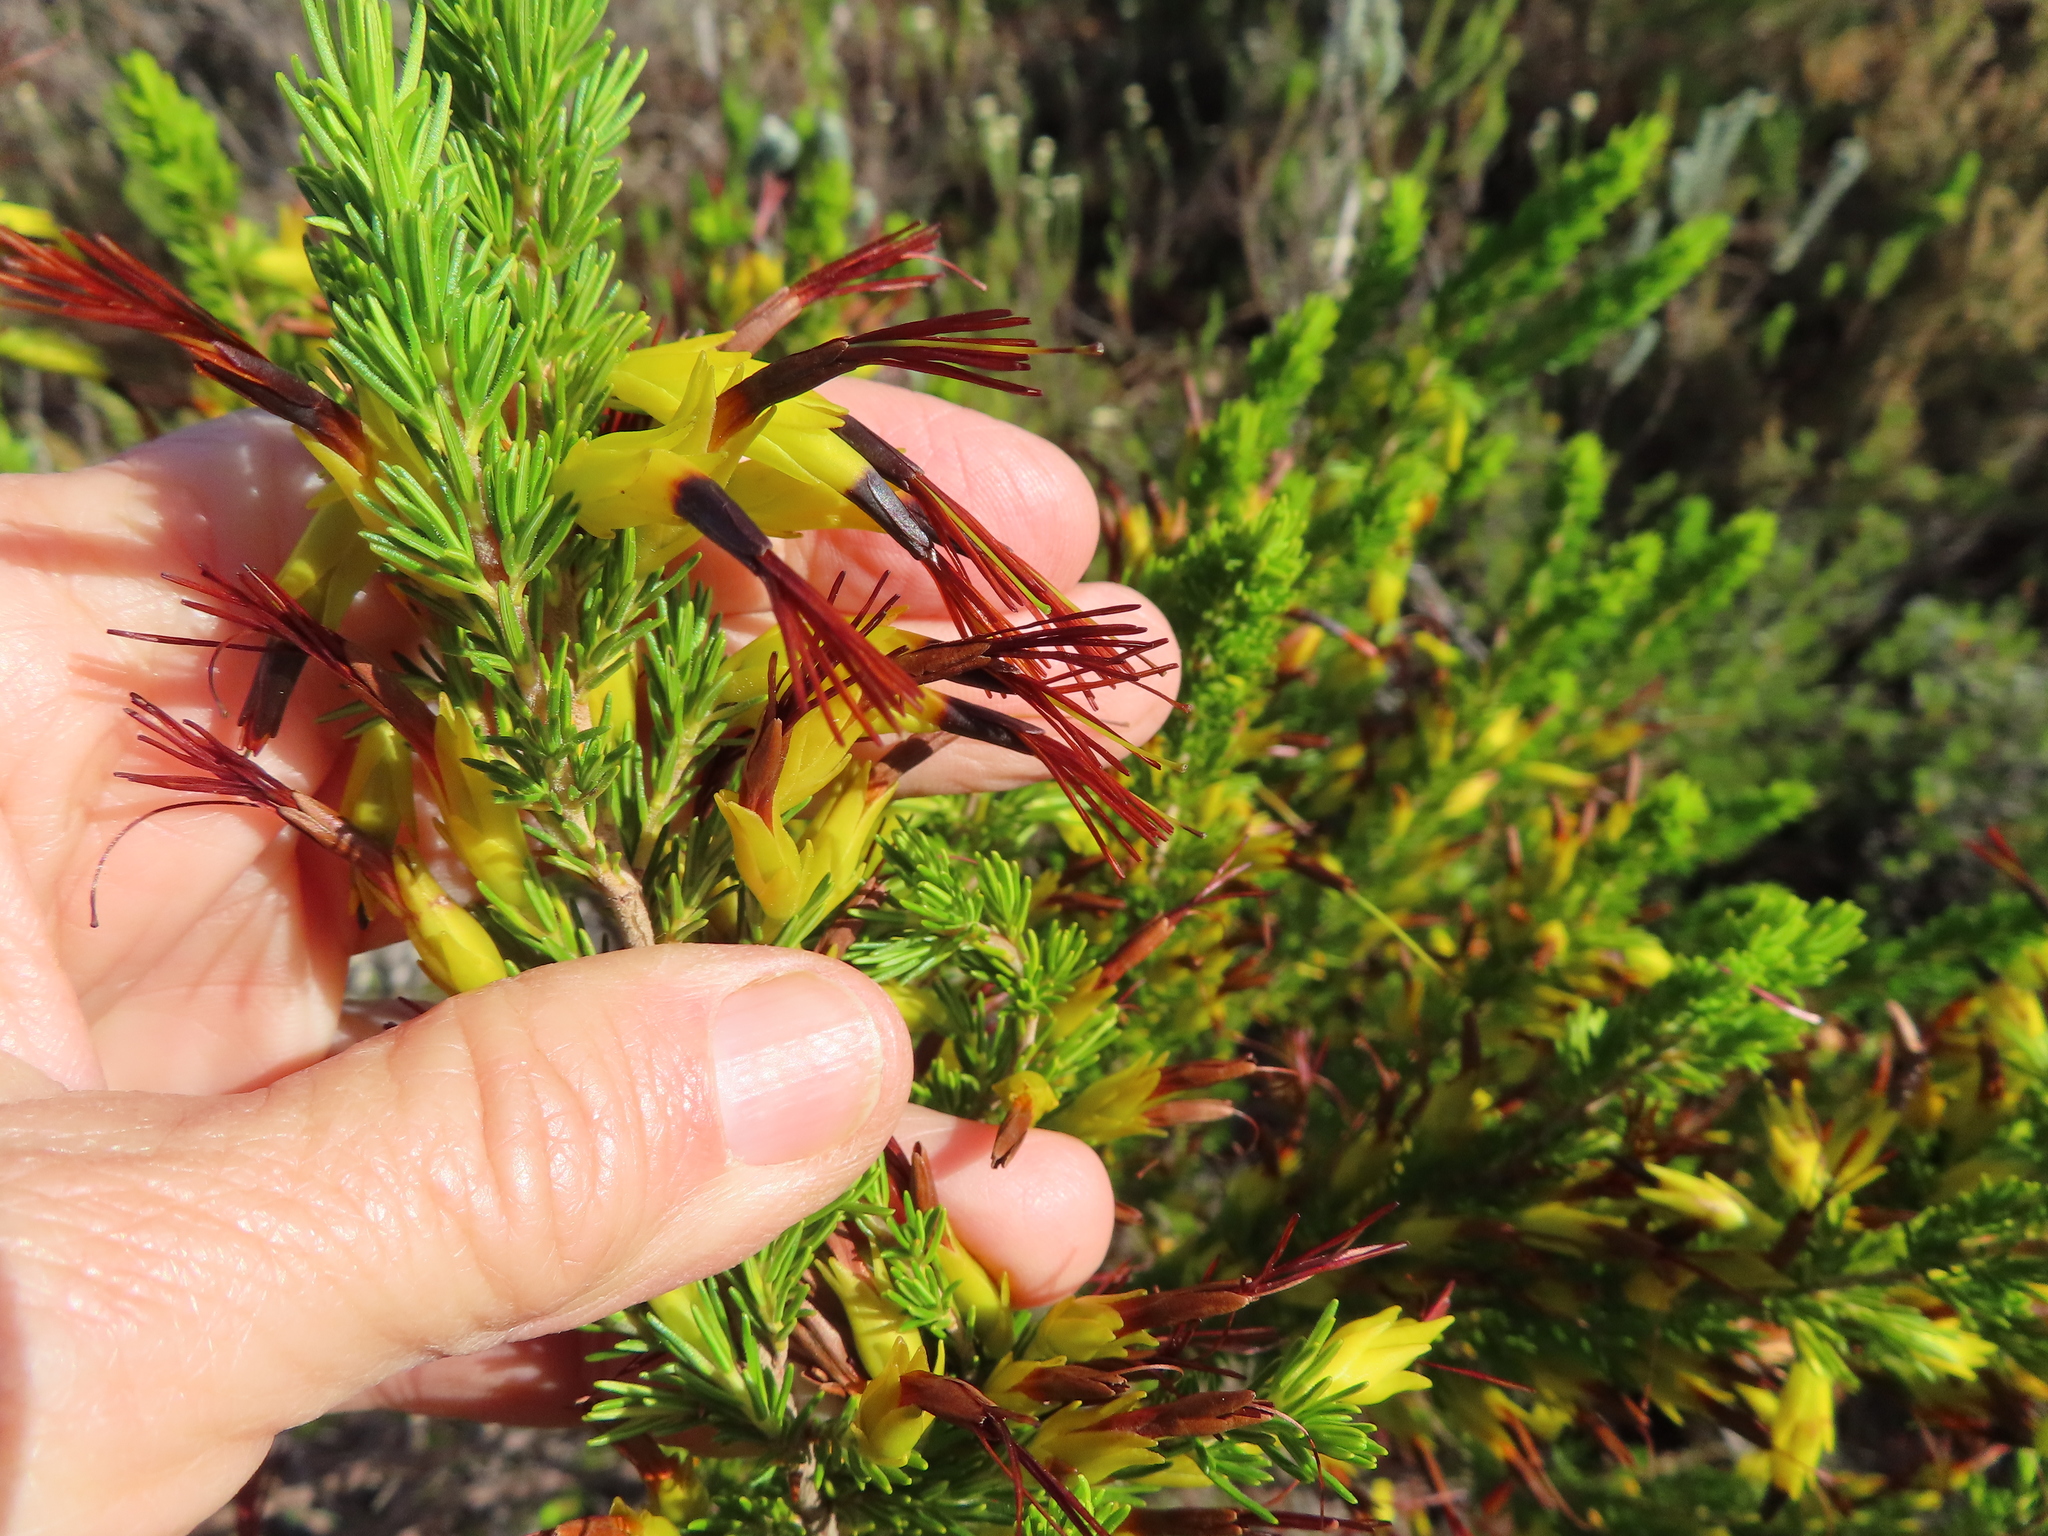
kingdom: Plantae
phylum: Tracheophyta
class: Magnoliopsida
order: Ericales
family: Ericaceae
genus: Erica
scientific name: Erica melastoma
